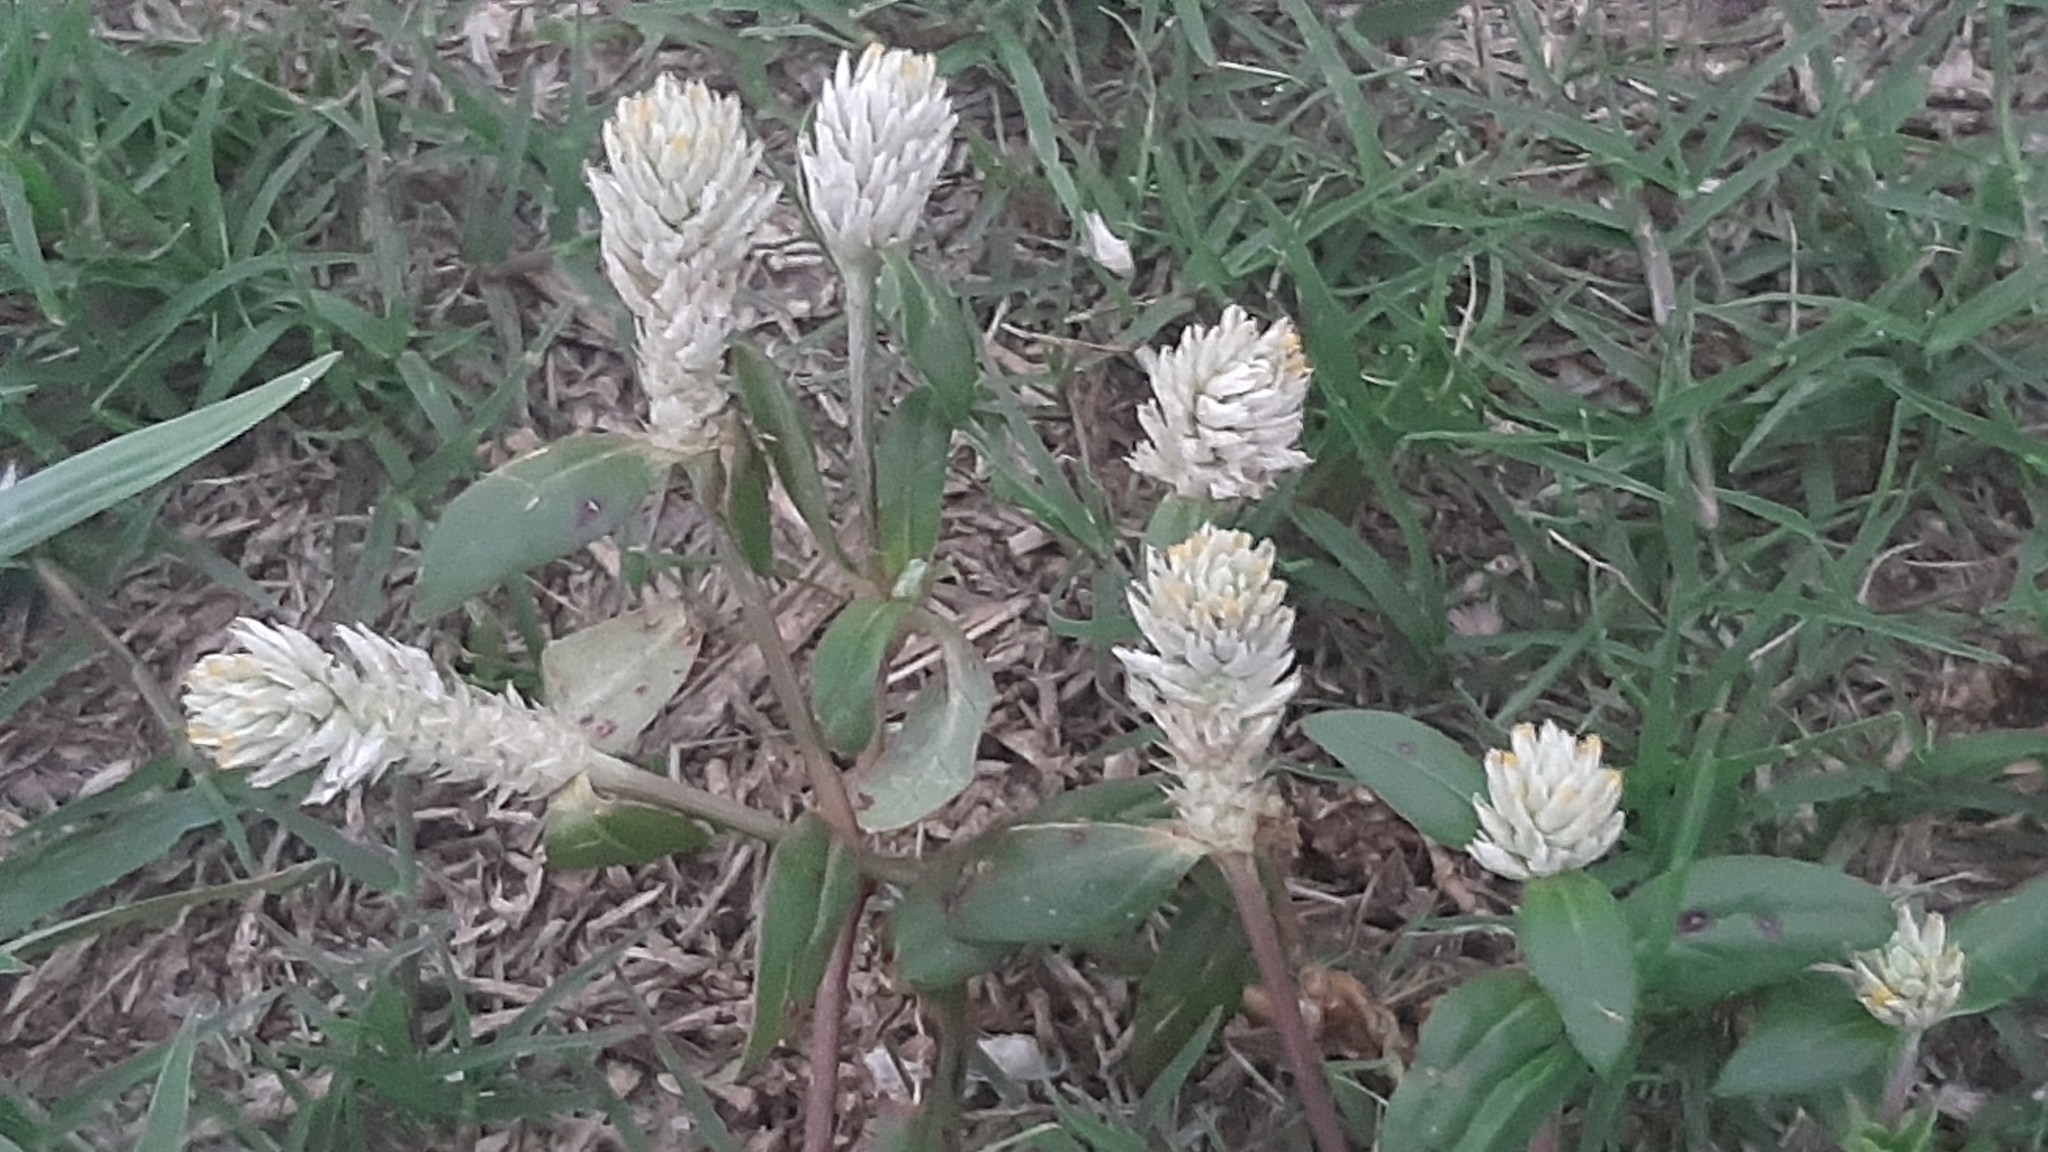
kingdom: Plantae
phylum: Tracheophyta
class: Magnoliopsida
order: Caryophyllales
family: Amaranthaceae
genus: Gomphrena
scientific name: Gomphrena celosioides
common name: Gomphrena-weed
